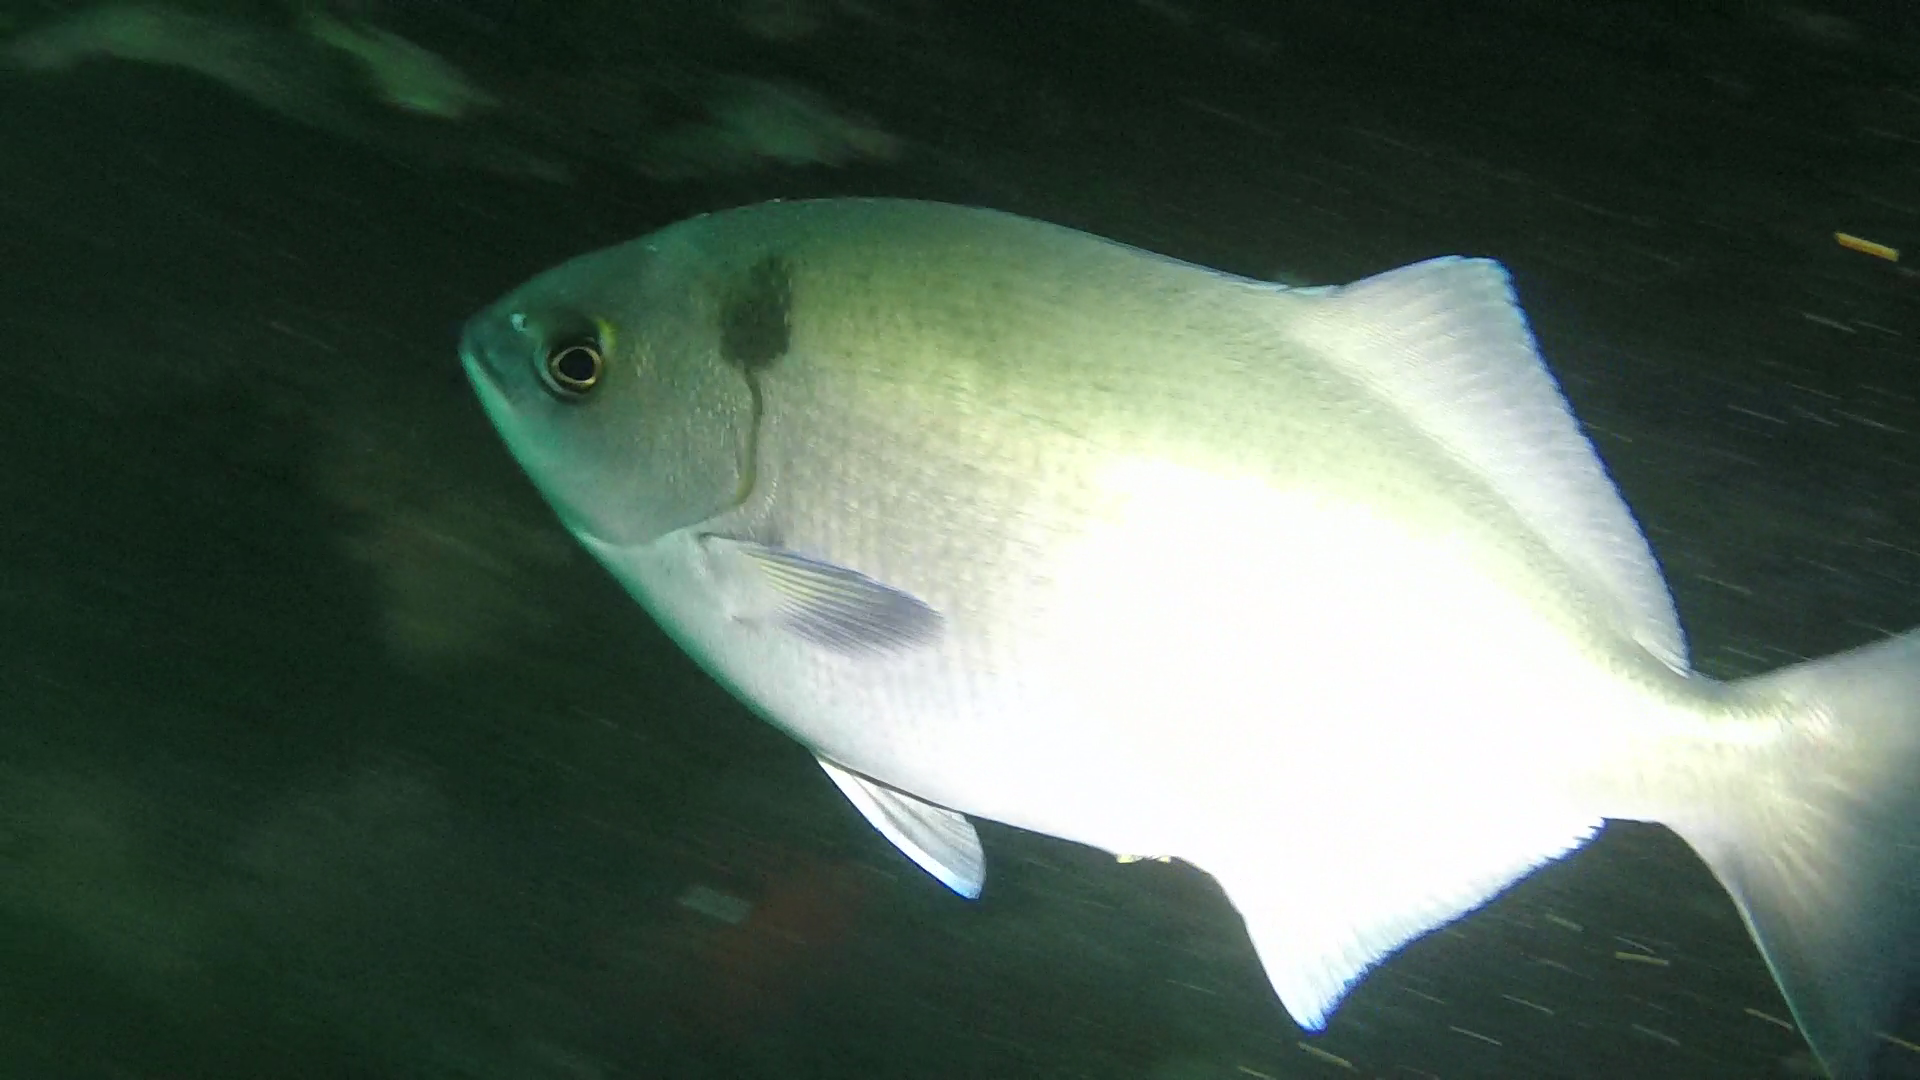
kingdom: Animalia
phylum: Chordata
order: Perciformes
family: Kyphosidae
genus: Medialuna
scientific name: Medialuna californiensis
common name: Halfmoon
